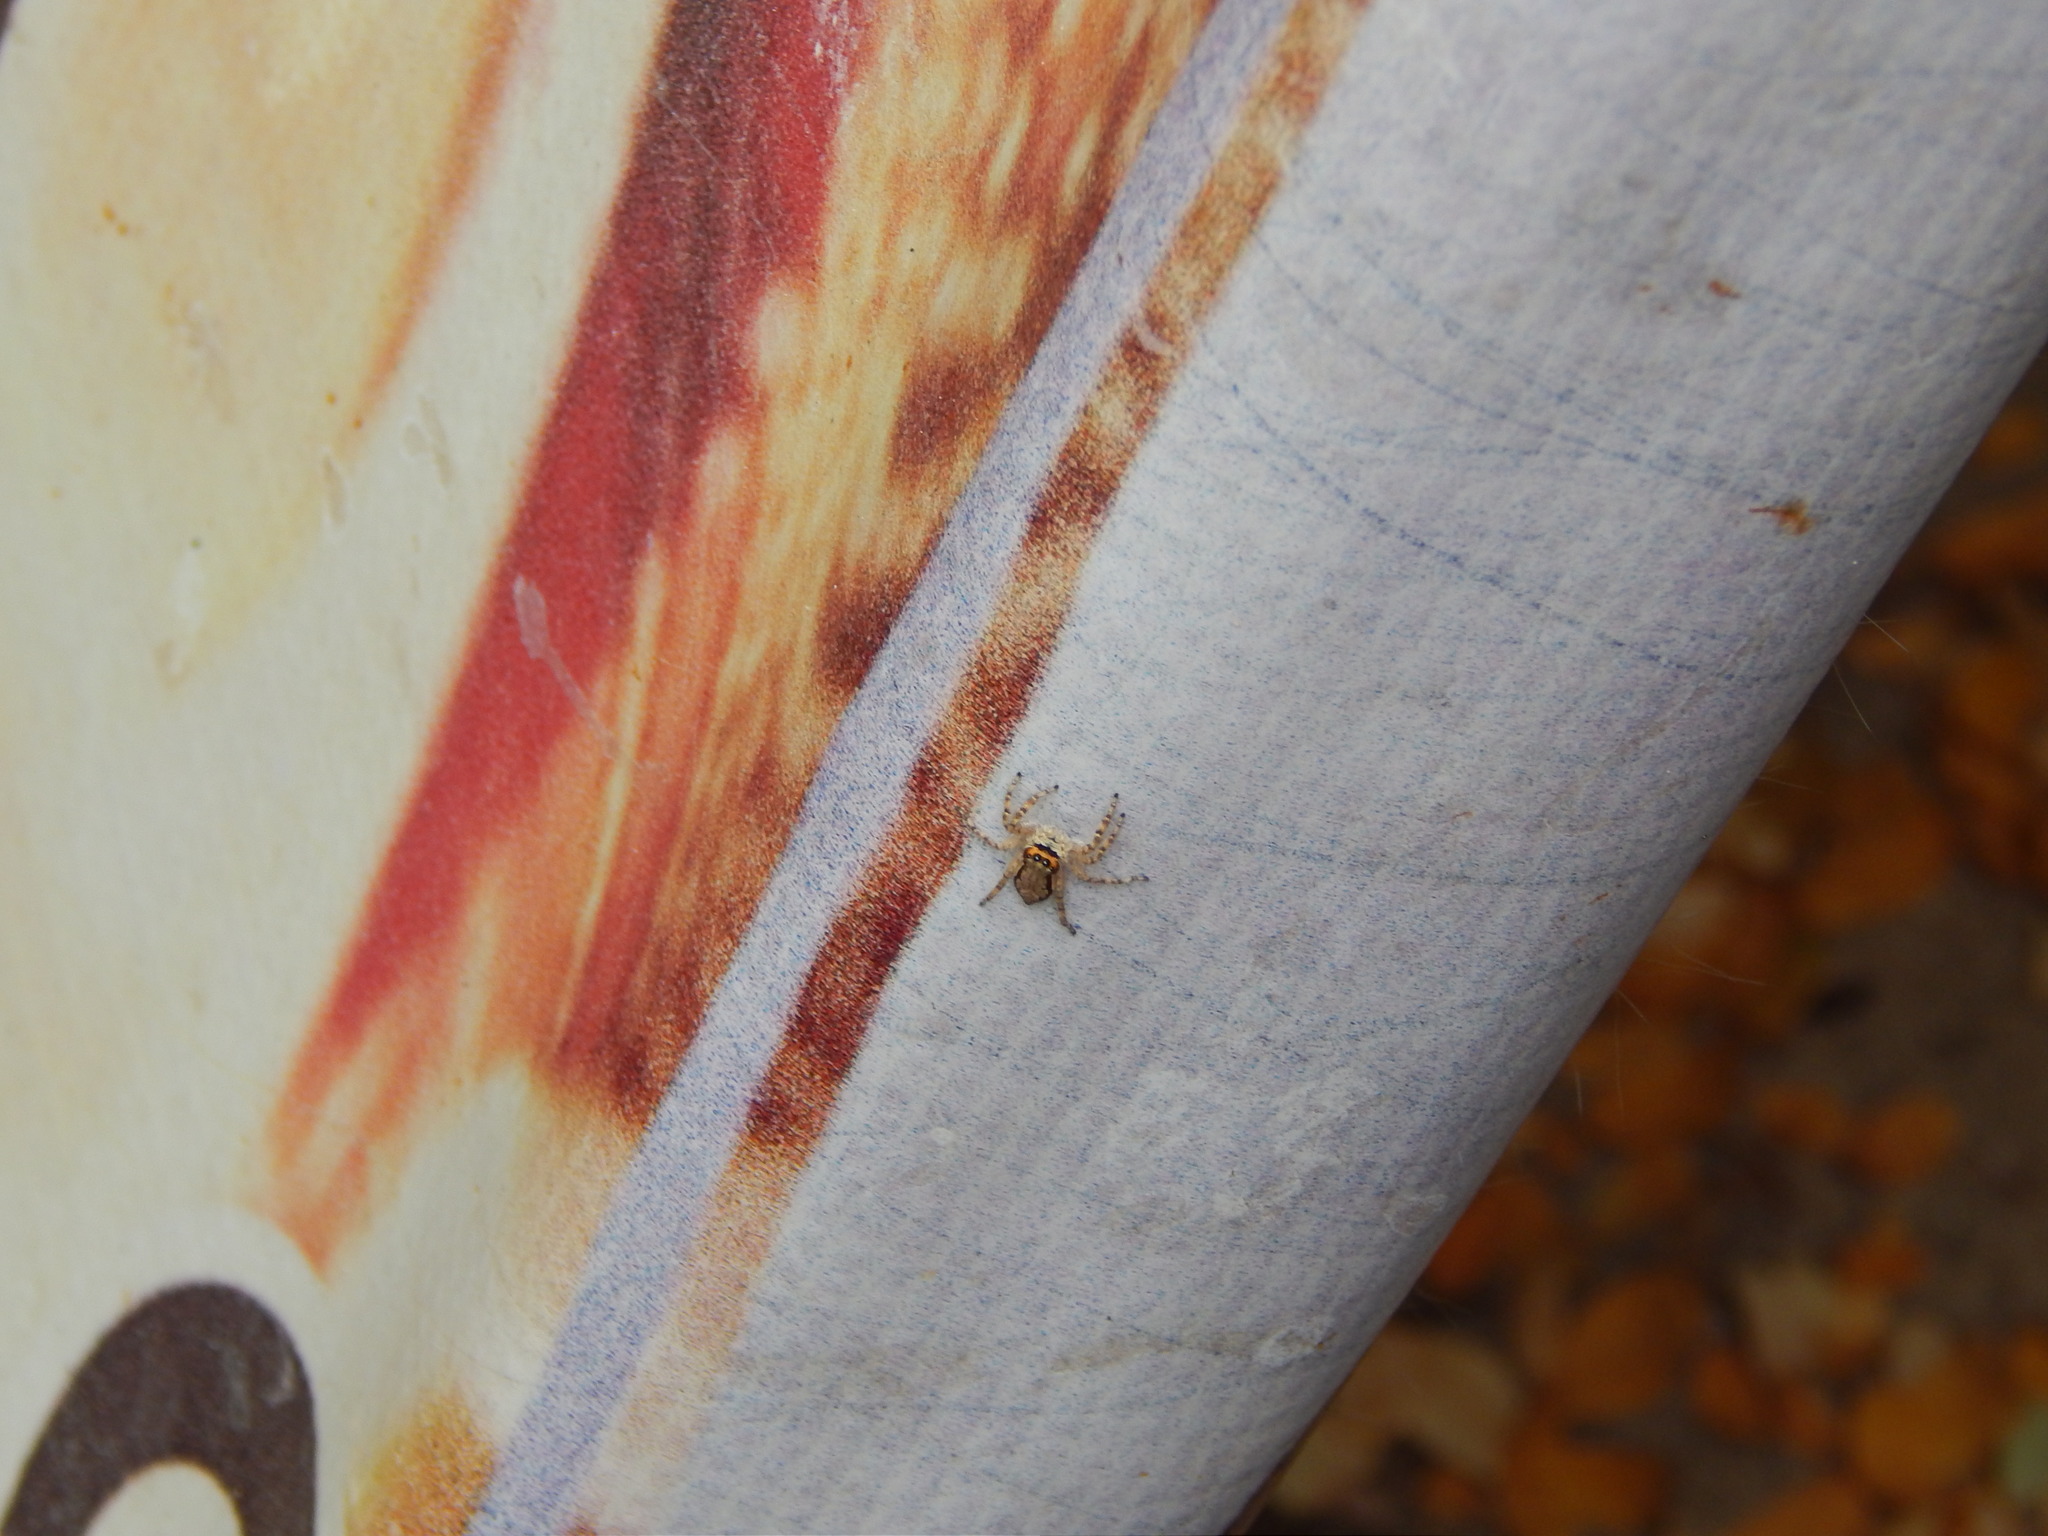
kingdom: Animalia
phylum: Arthropoda
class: Arachnida
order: Araneae
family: Salticidae
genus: Menemerus
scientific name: Menemerus bivittatus
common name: Gray wall jumper
